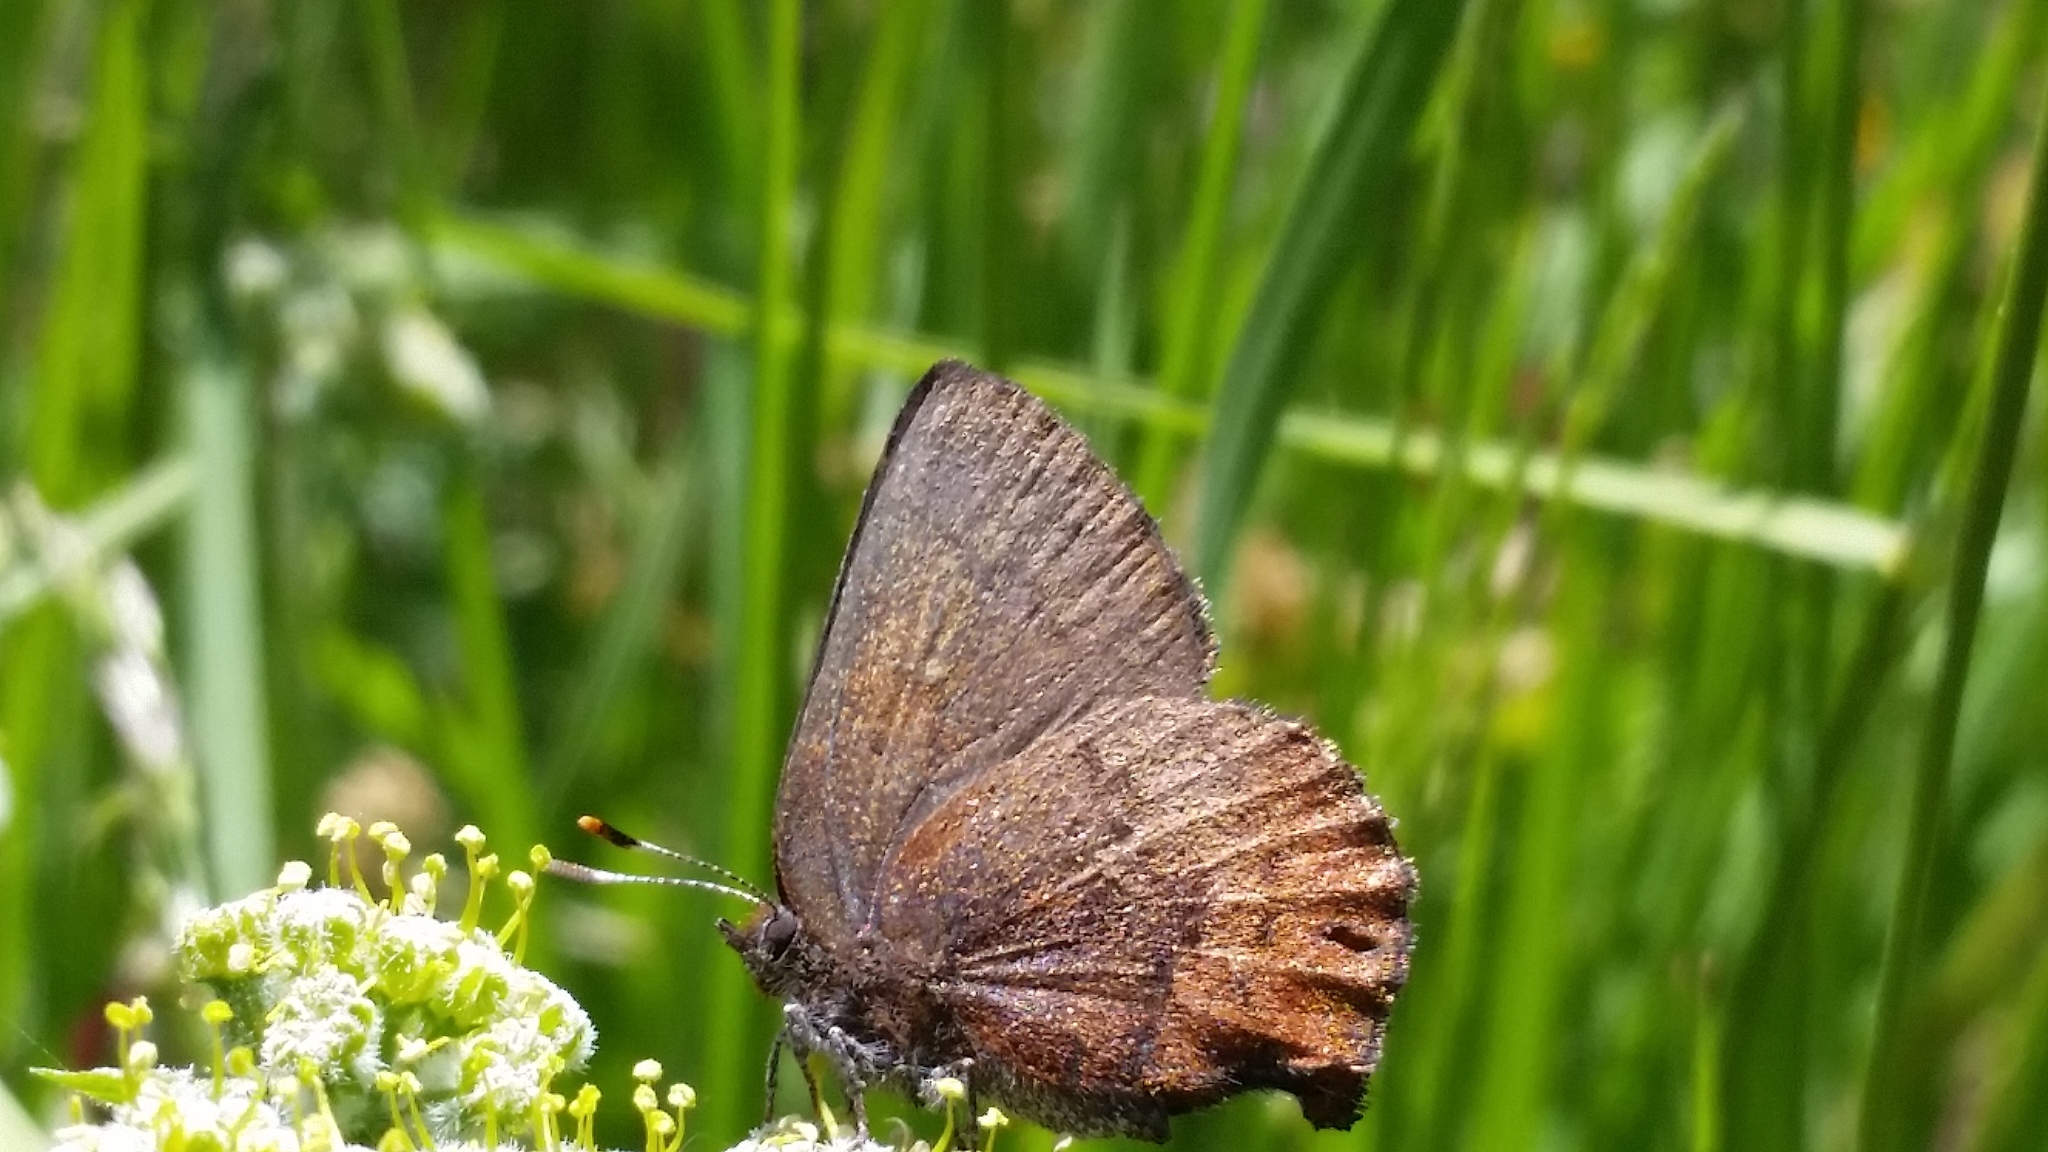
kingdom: Animalia
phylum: Arthropoda
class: Insecta
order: Lepidoptera
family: Lycaenidae
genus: Incisalia
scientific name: Incisalia irioides
